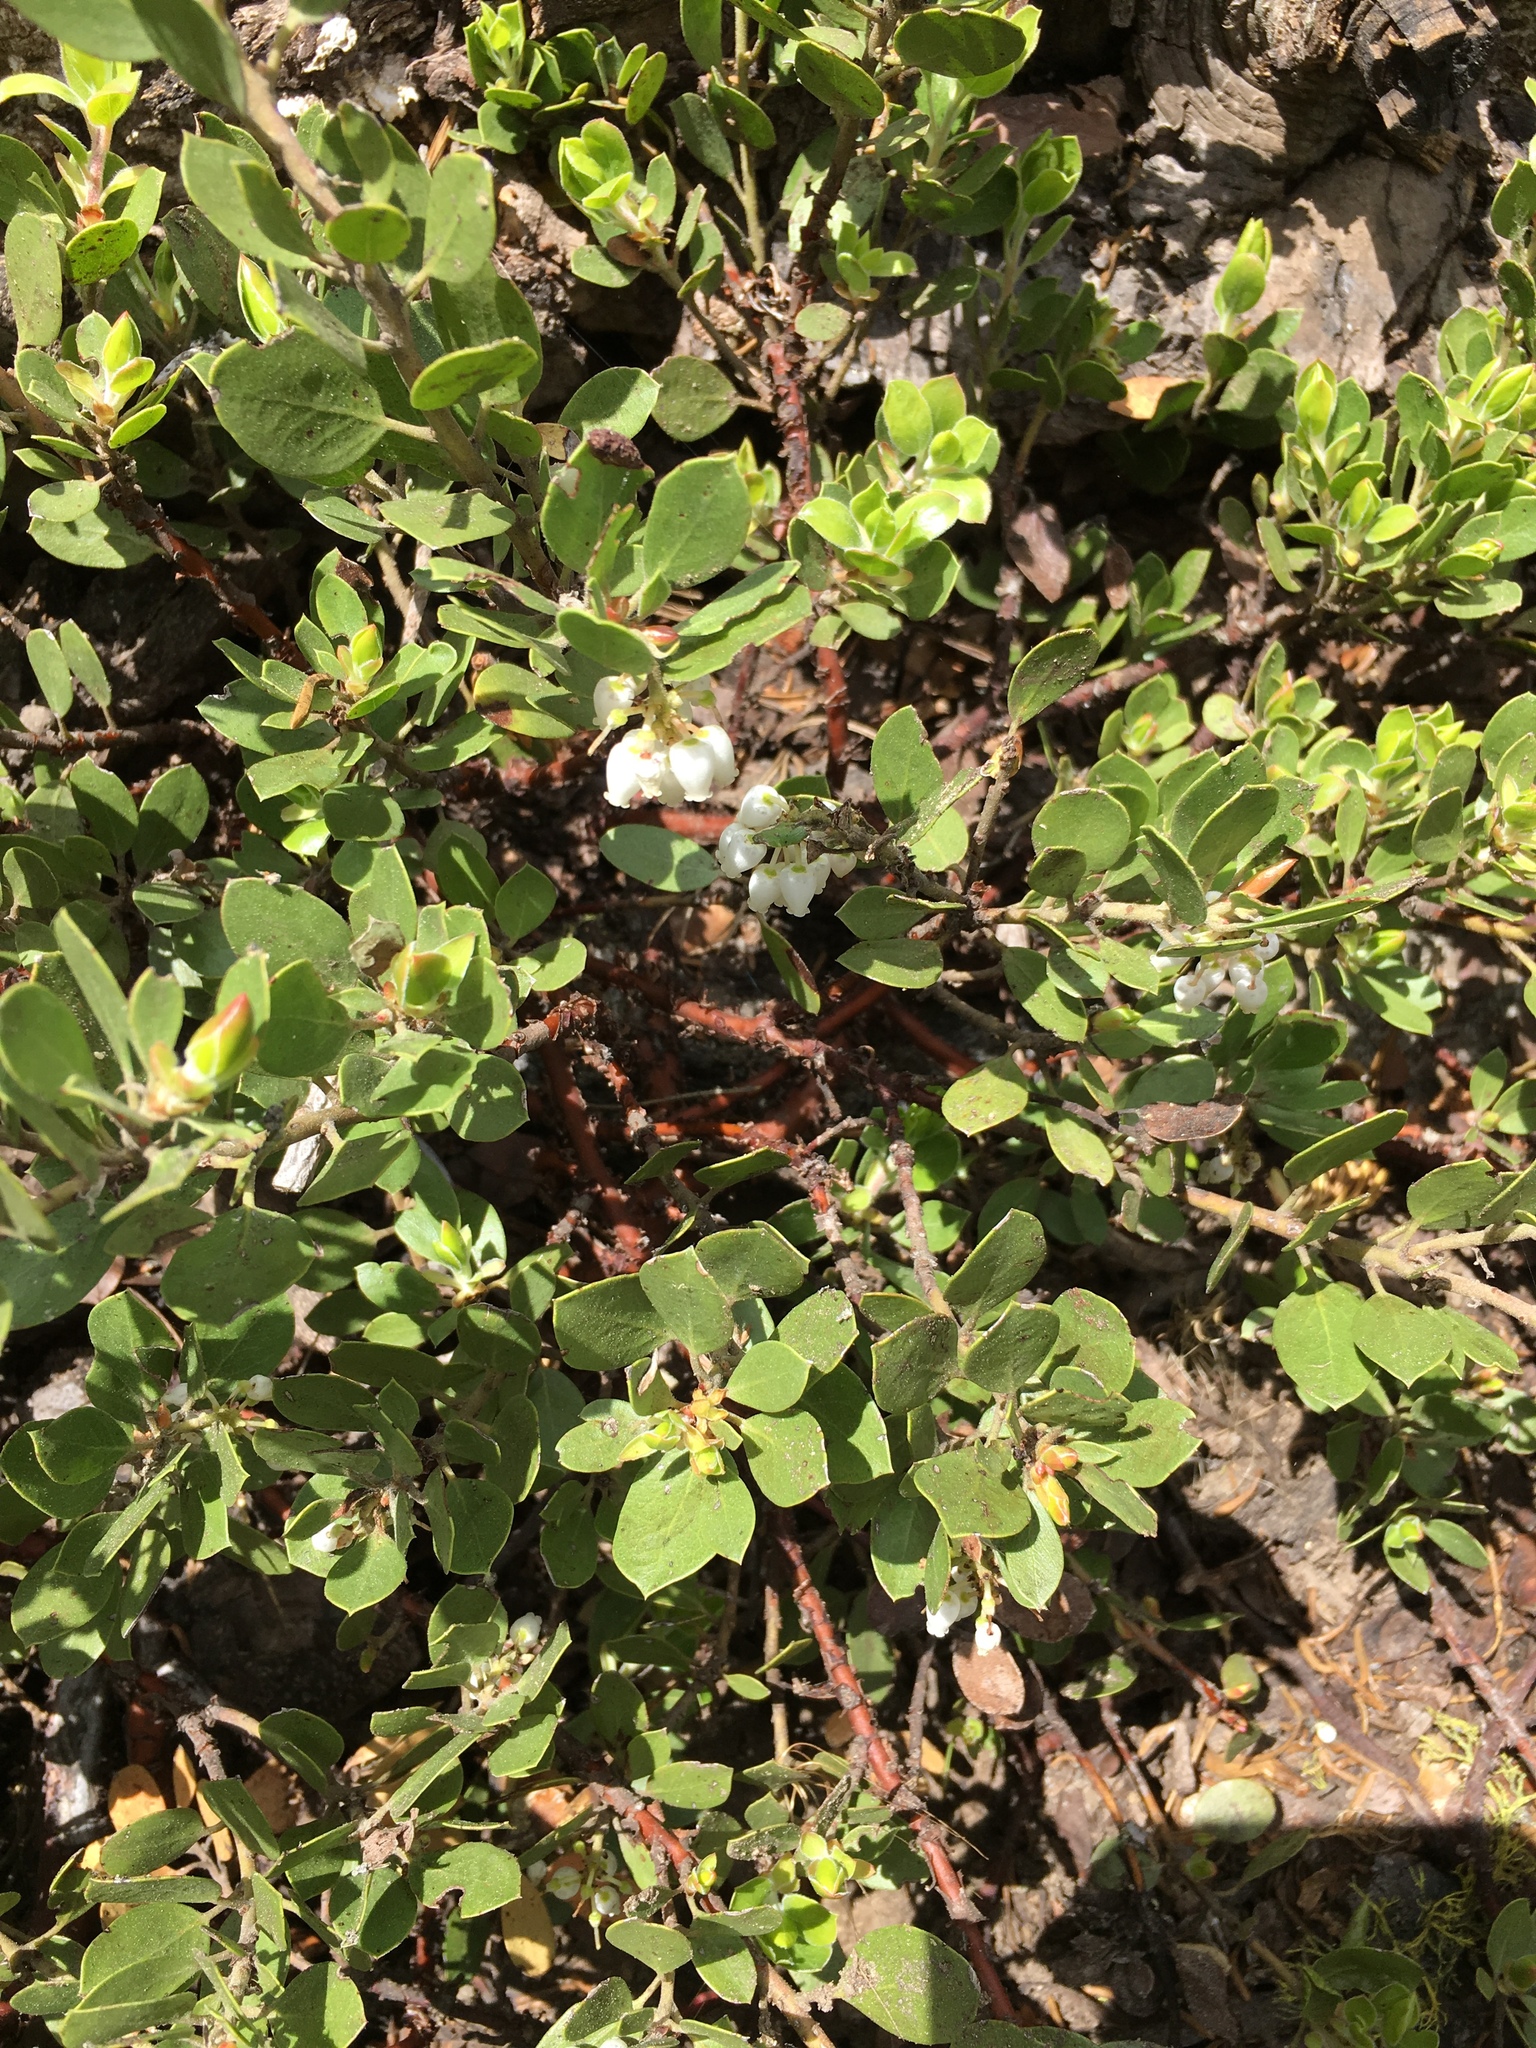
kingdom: Plantae
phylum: Tracheophyta
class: Magnoliopsida
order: Ericales
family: Ericaceae
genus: Arctostaphylos
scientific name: Arctostaphylos nevadensis
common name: Pinemat manzanita
